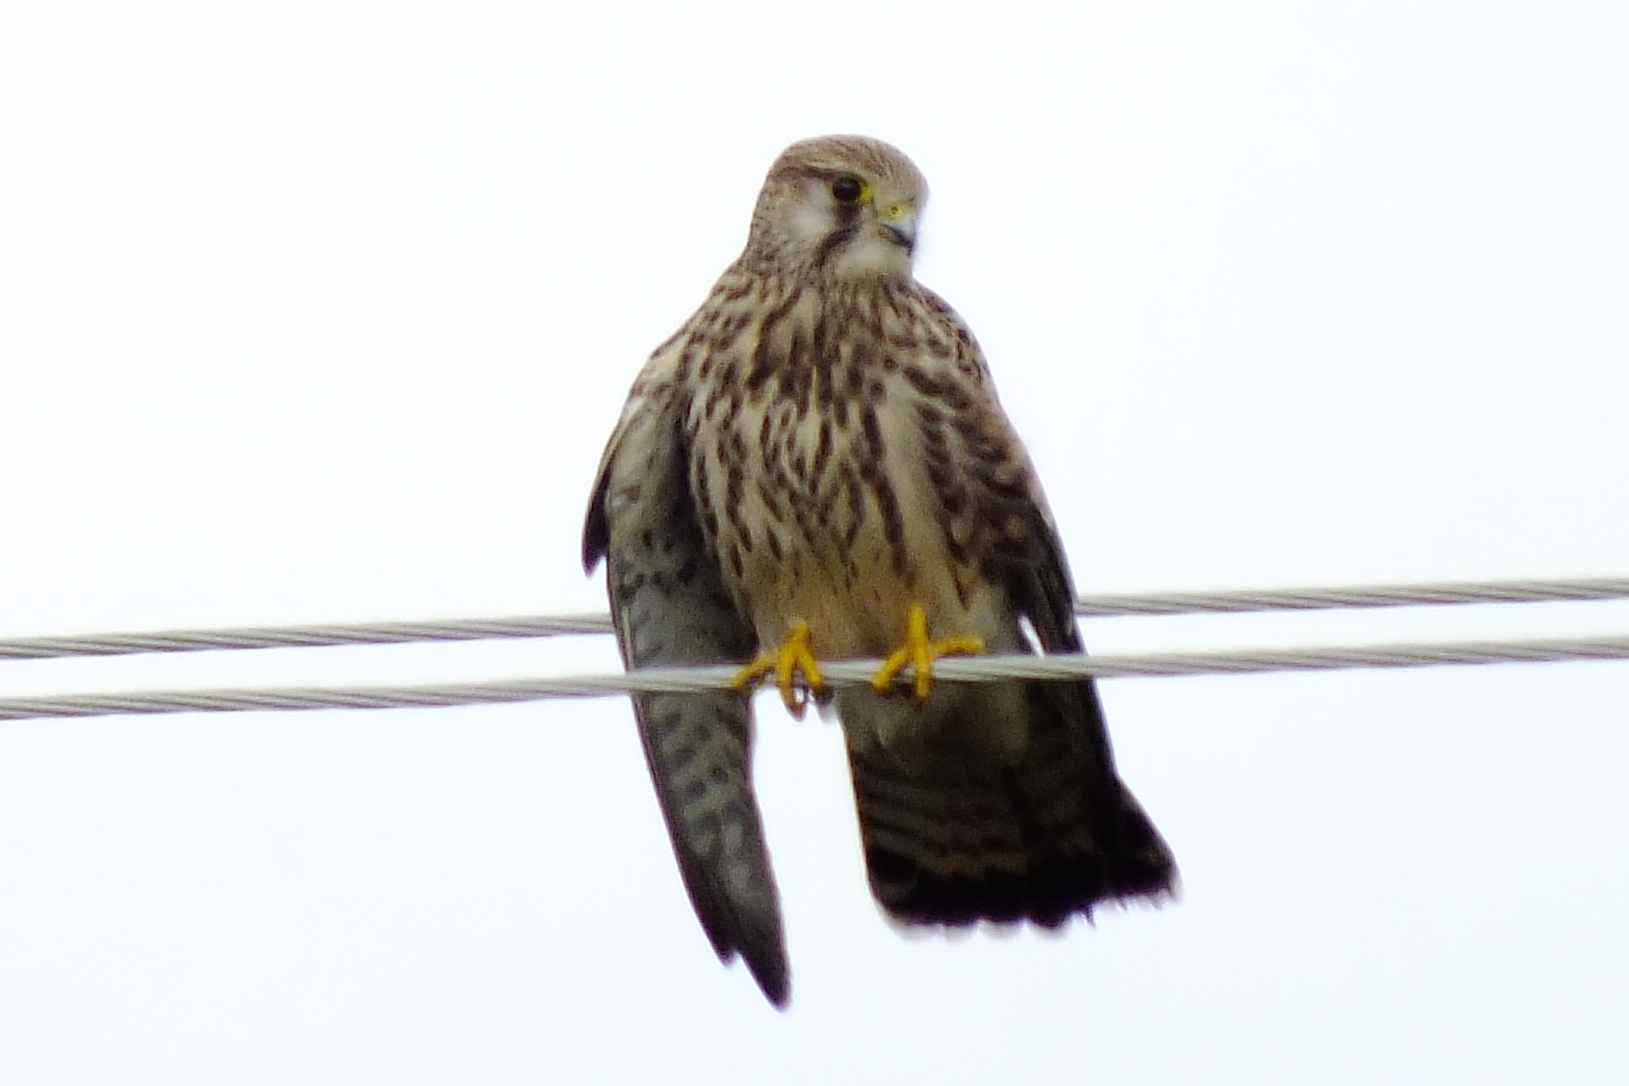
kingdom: Animalia
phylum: Chordata
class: Aves
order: Falconiformes
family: Falconidae
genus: Falco
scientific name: Falco tinnunculus
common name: Common kestrel
